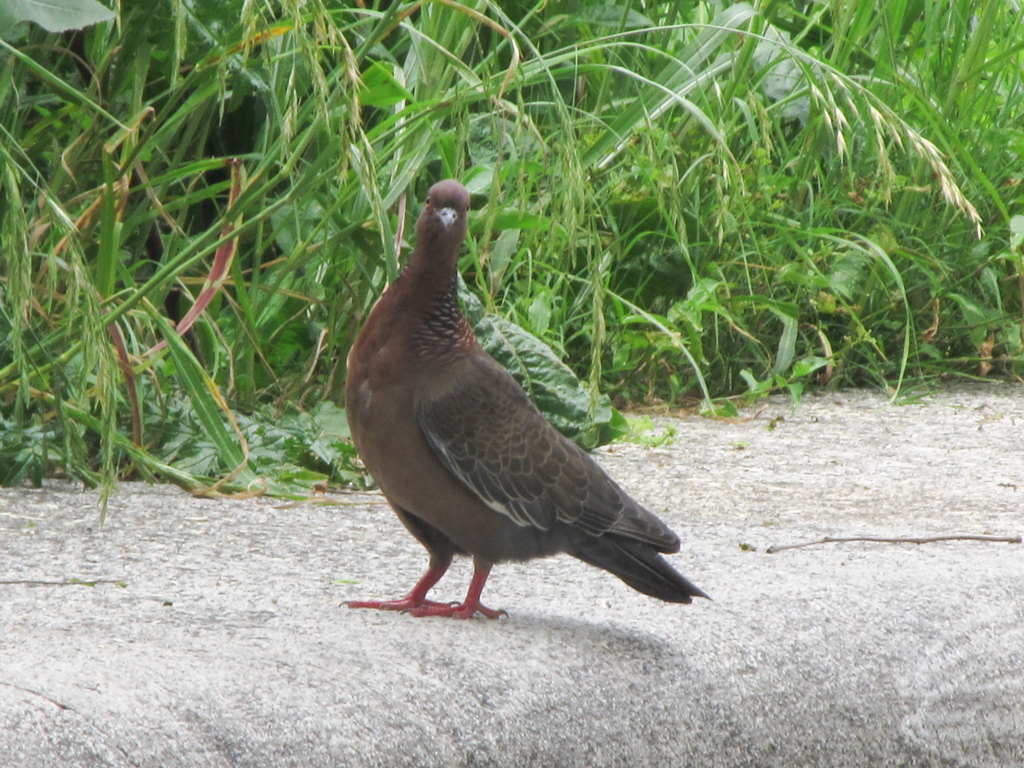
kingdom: Animalia
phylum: Chordata
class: Aves
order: Columbiformes
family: Columbidae
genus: Patagioenas
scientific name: Patagioenas picazuro
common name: Picazuro pigeon
